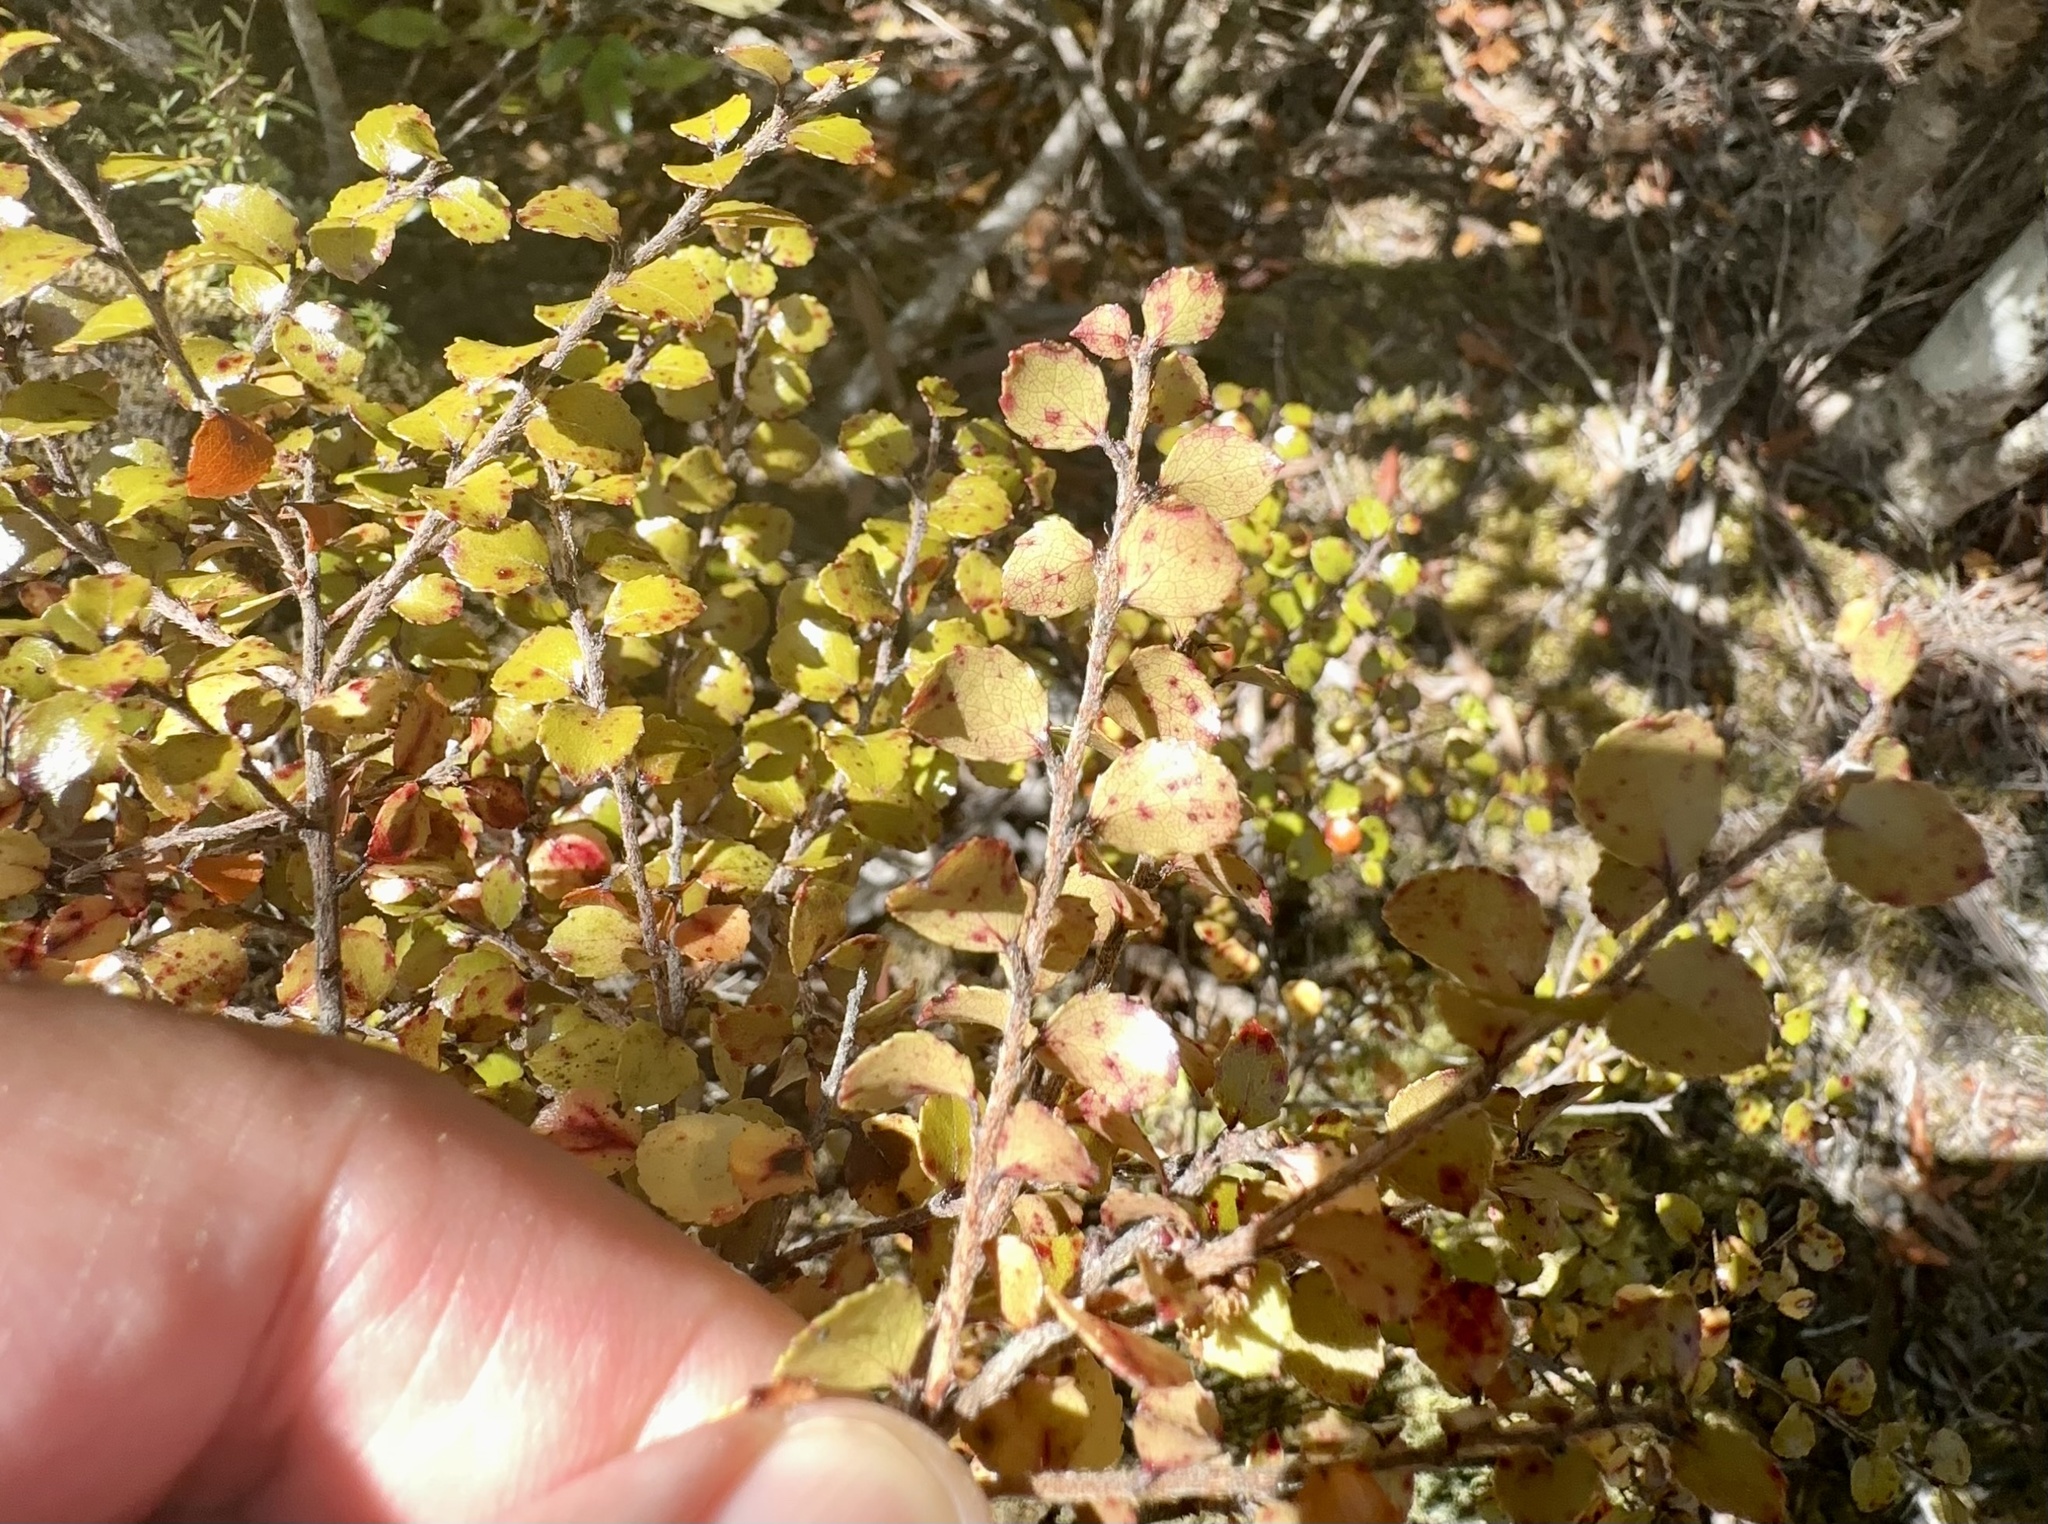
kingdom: Plantae
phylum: Tracheophyta
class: Magnoliopsida
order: Ericales
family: Ericaceae
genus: Gaultheria
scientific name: Gaultheria antipoda
